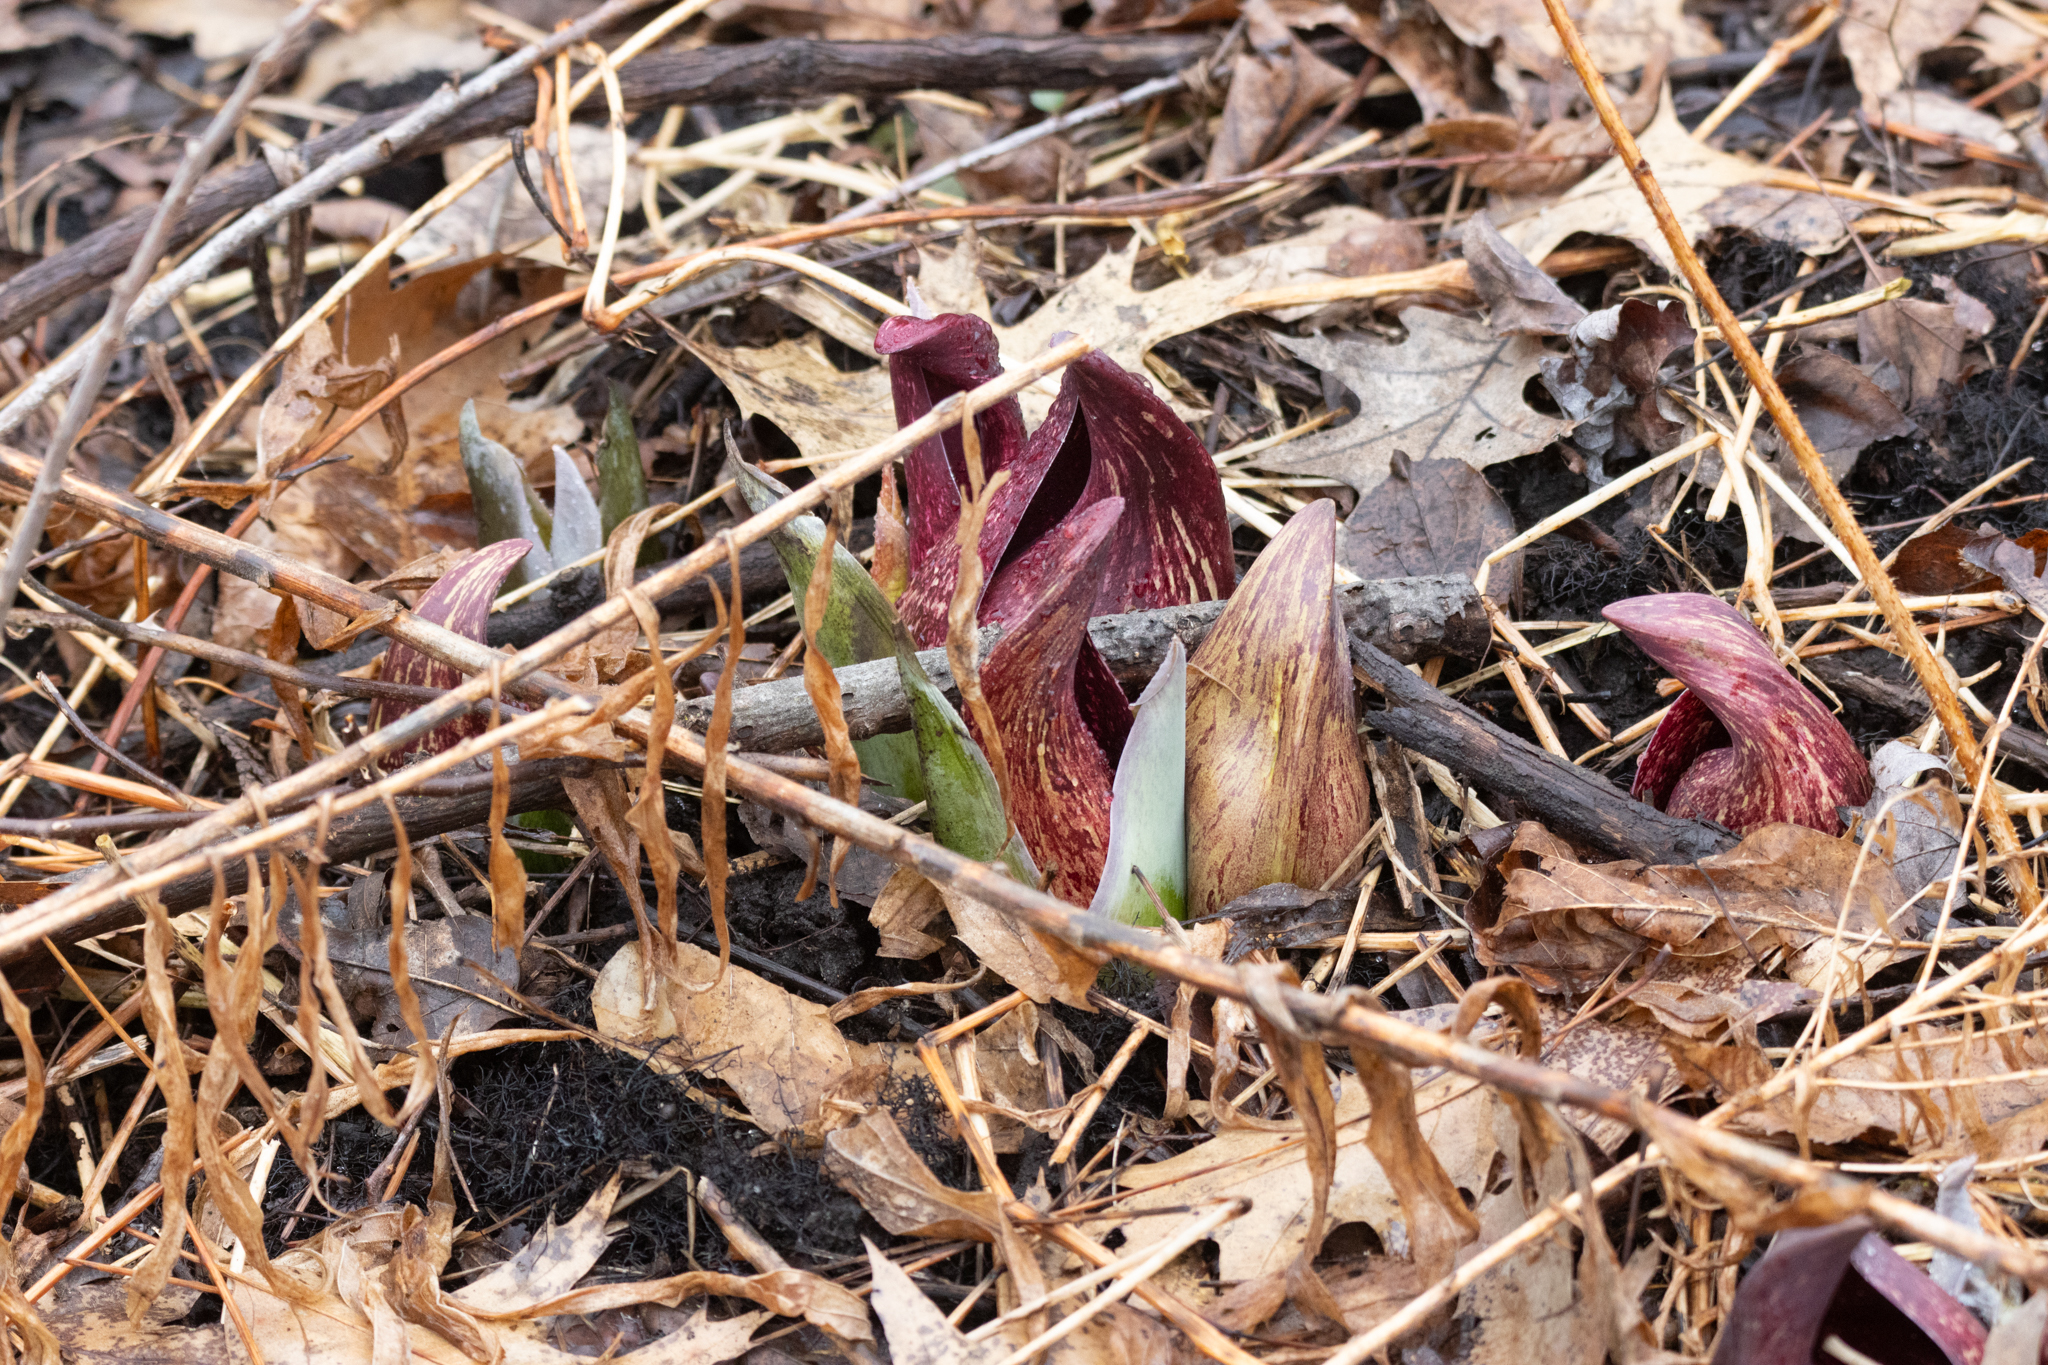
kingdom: Plantae
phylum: Tracheophyta
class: Liliopsida
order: Alismatales
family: Araceae
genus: Symplocarpus
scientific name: Symplocarpus foetidus
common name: Eastern skunk cabbage
